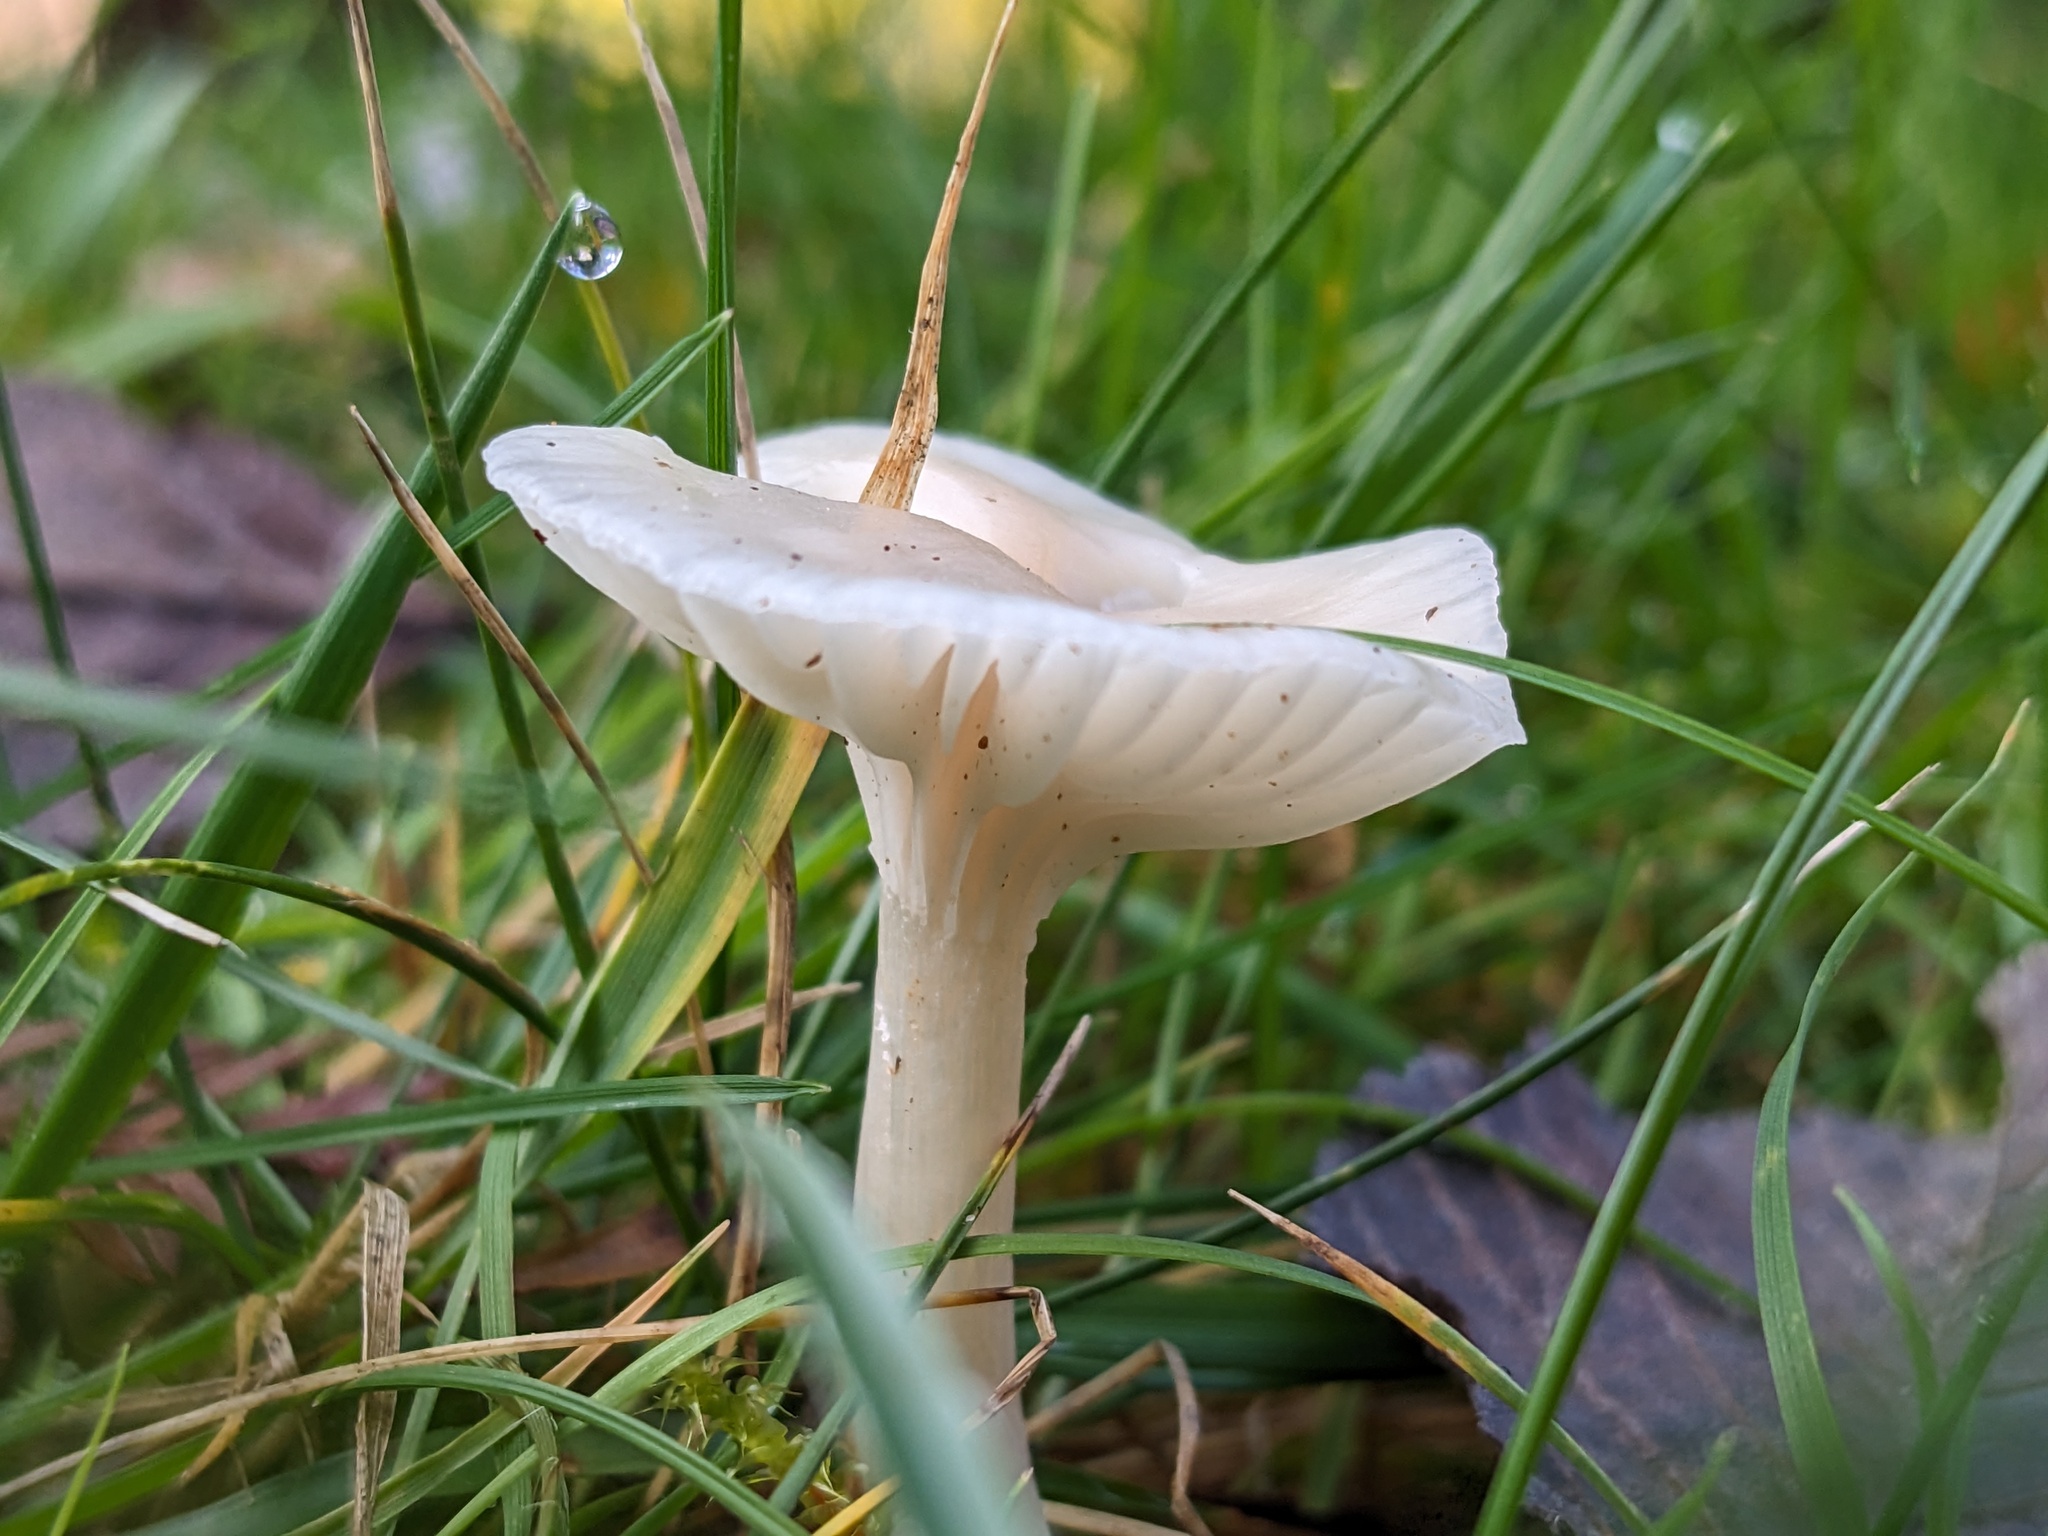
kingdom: Fungi
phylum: Basidiomycota
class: Agaricomycetes
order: Agaricales
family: Hygrophoraceae
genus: Cuphophyllus
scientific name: Cuphophyllus virgineus
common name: Snowy waxcap
